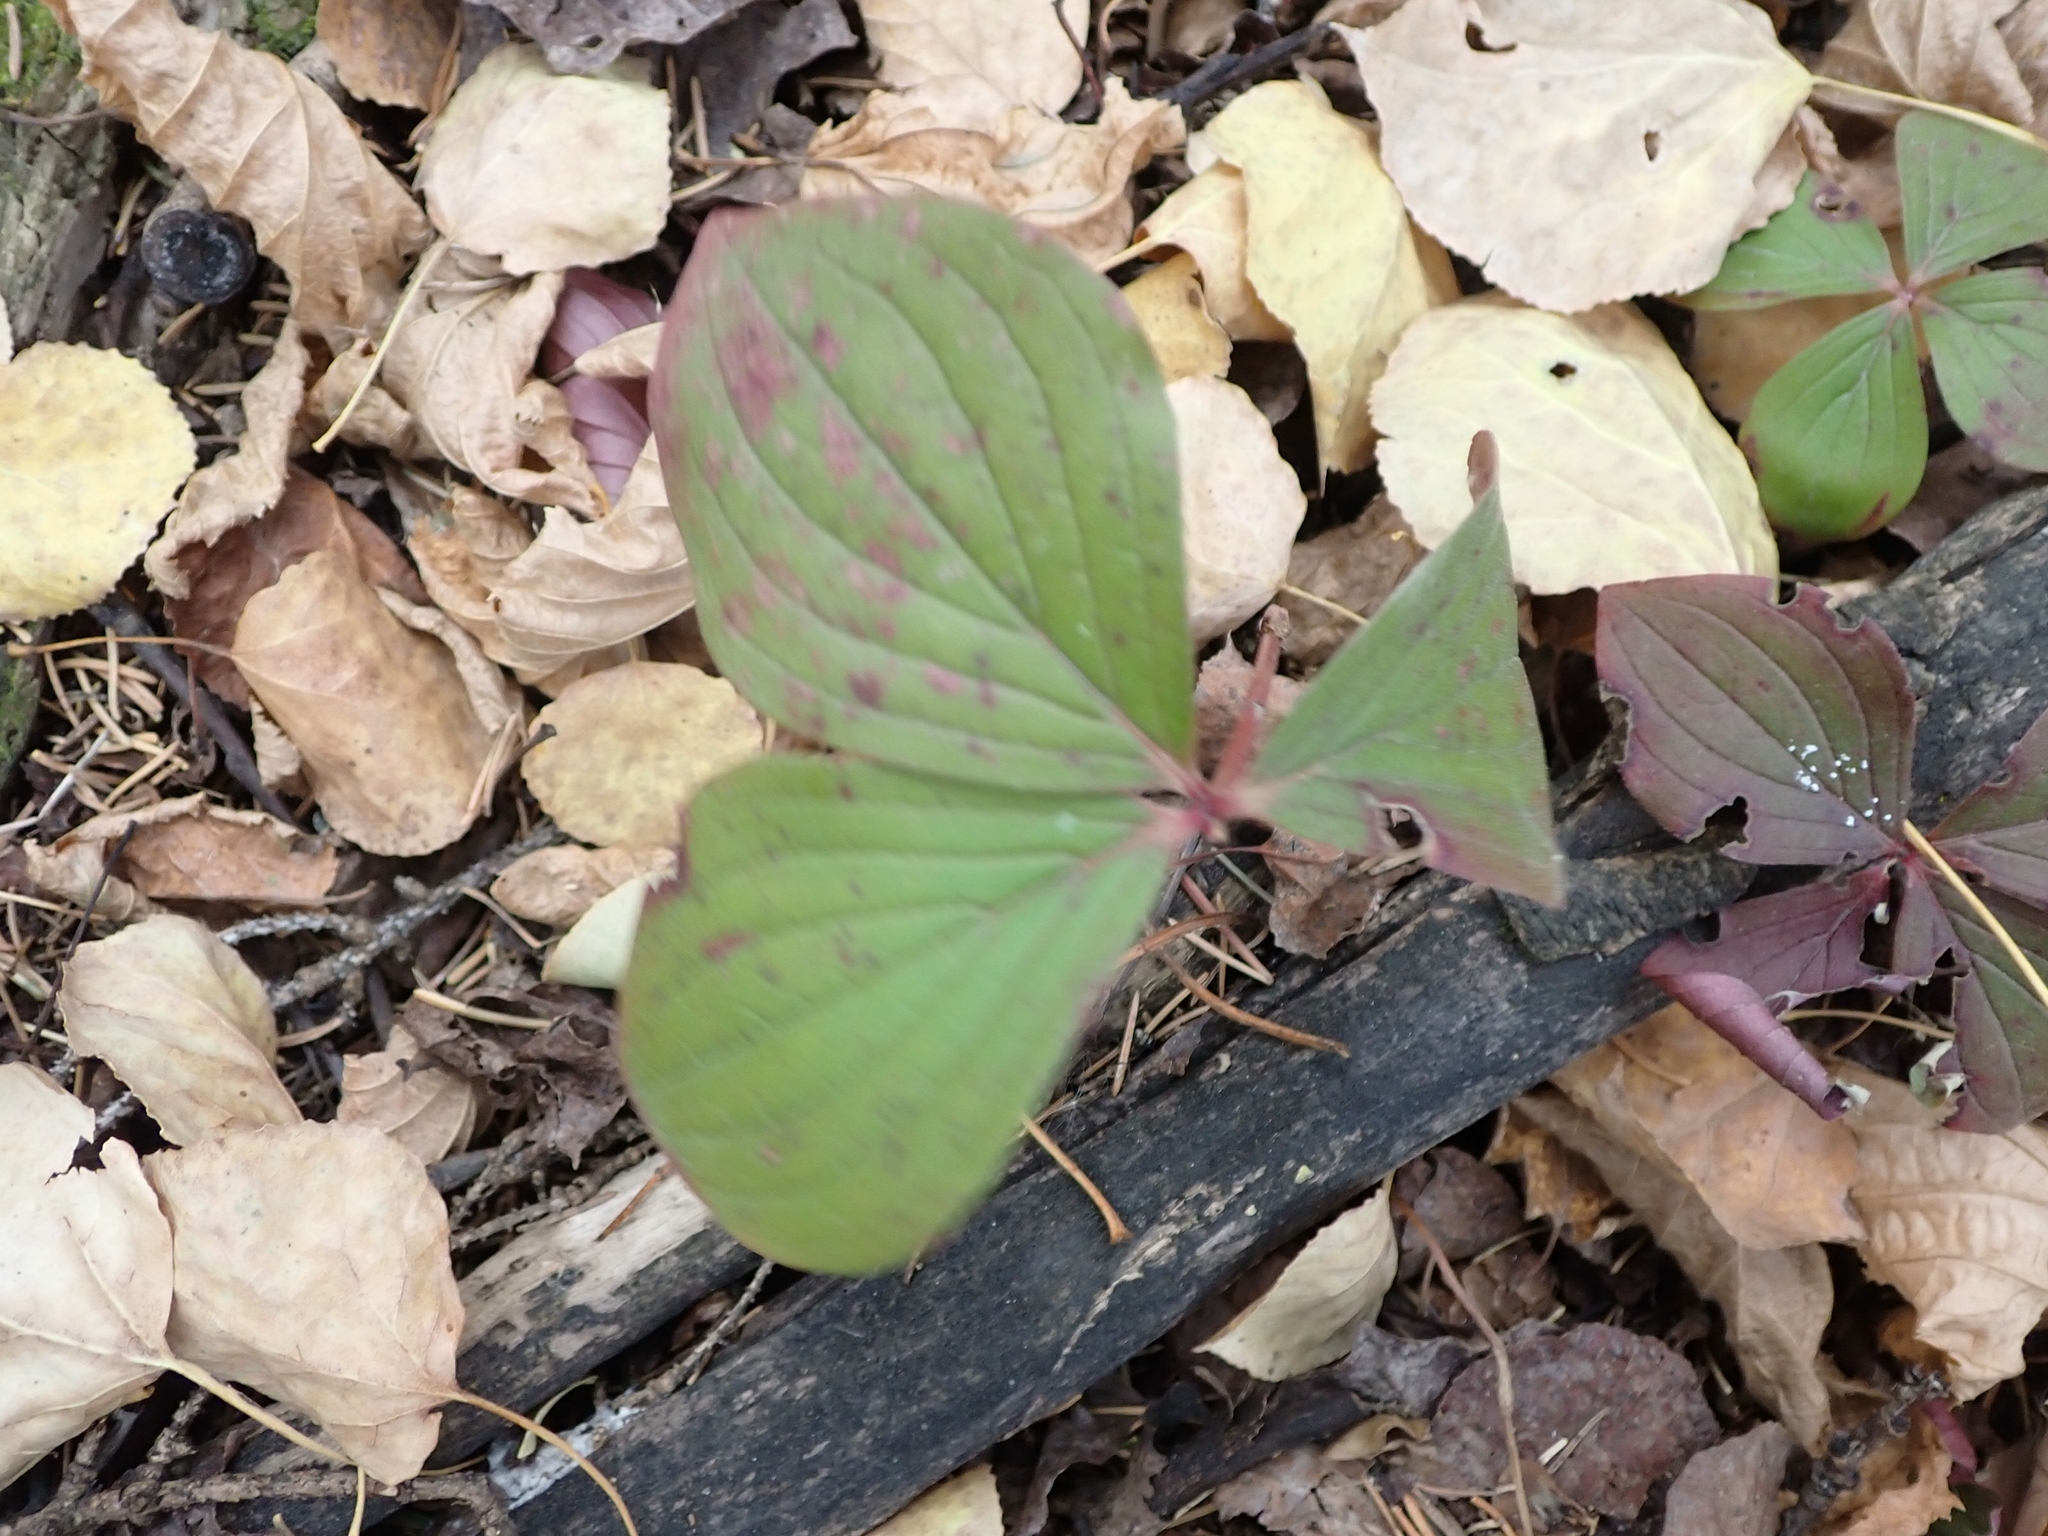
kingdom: Plantae
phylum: Tracheophyta
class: Magnoliopsida
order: Cornales
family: Cornaceae
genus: Cornus
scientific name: Cornus canadensis
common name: Creeping dogwood
